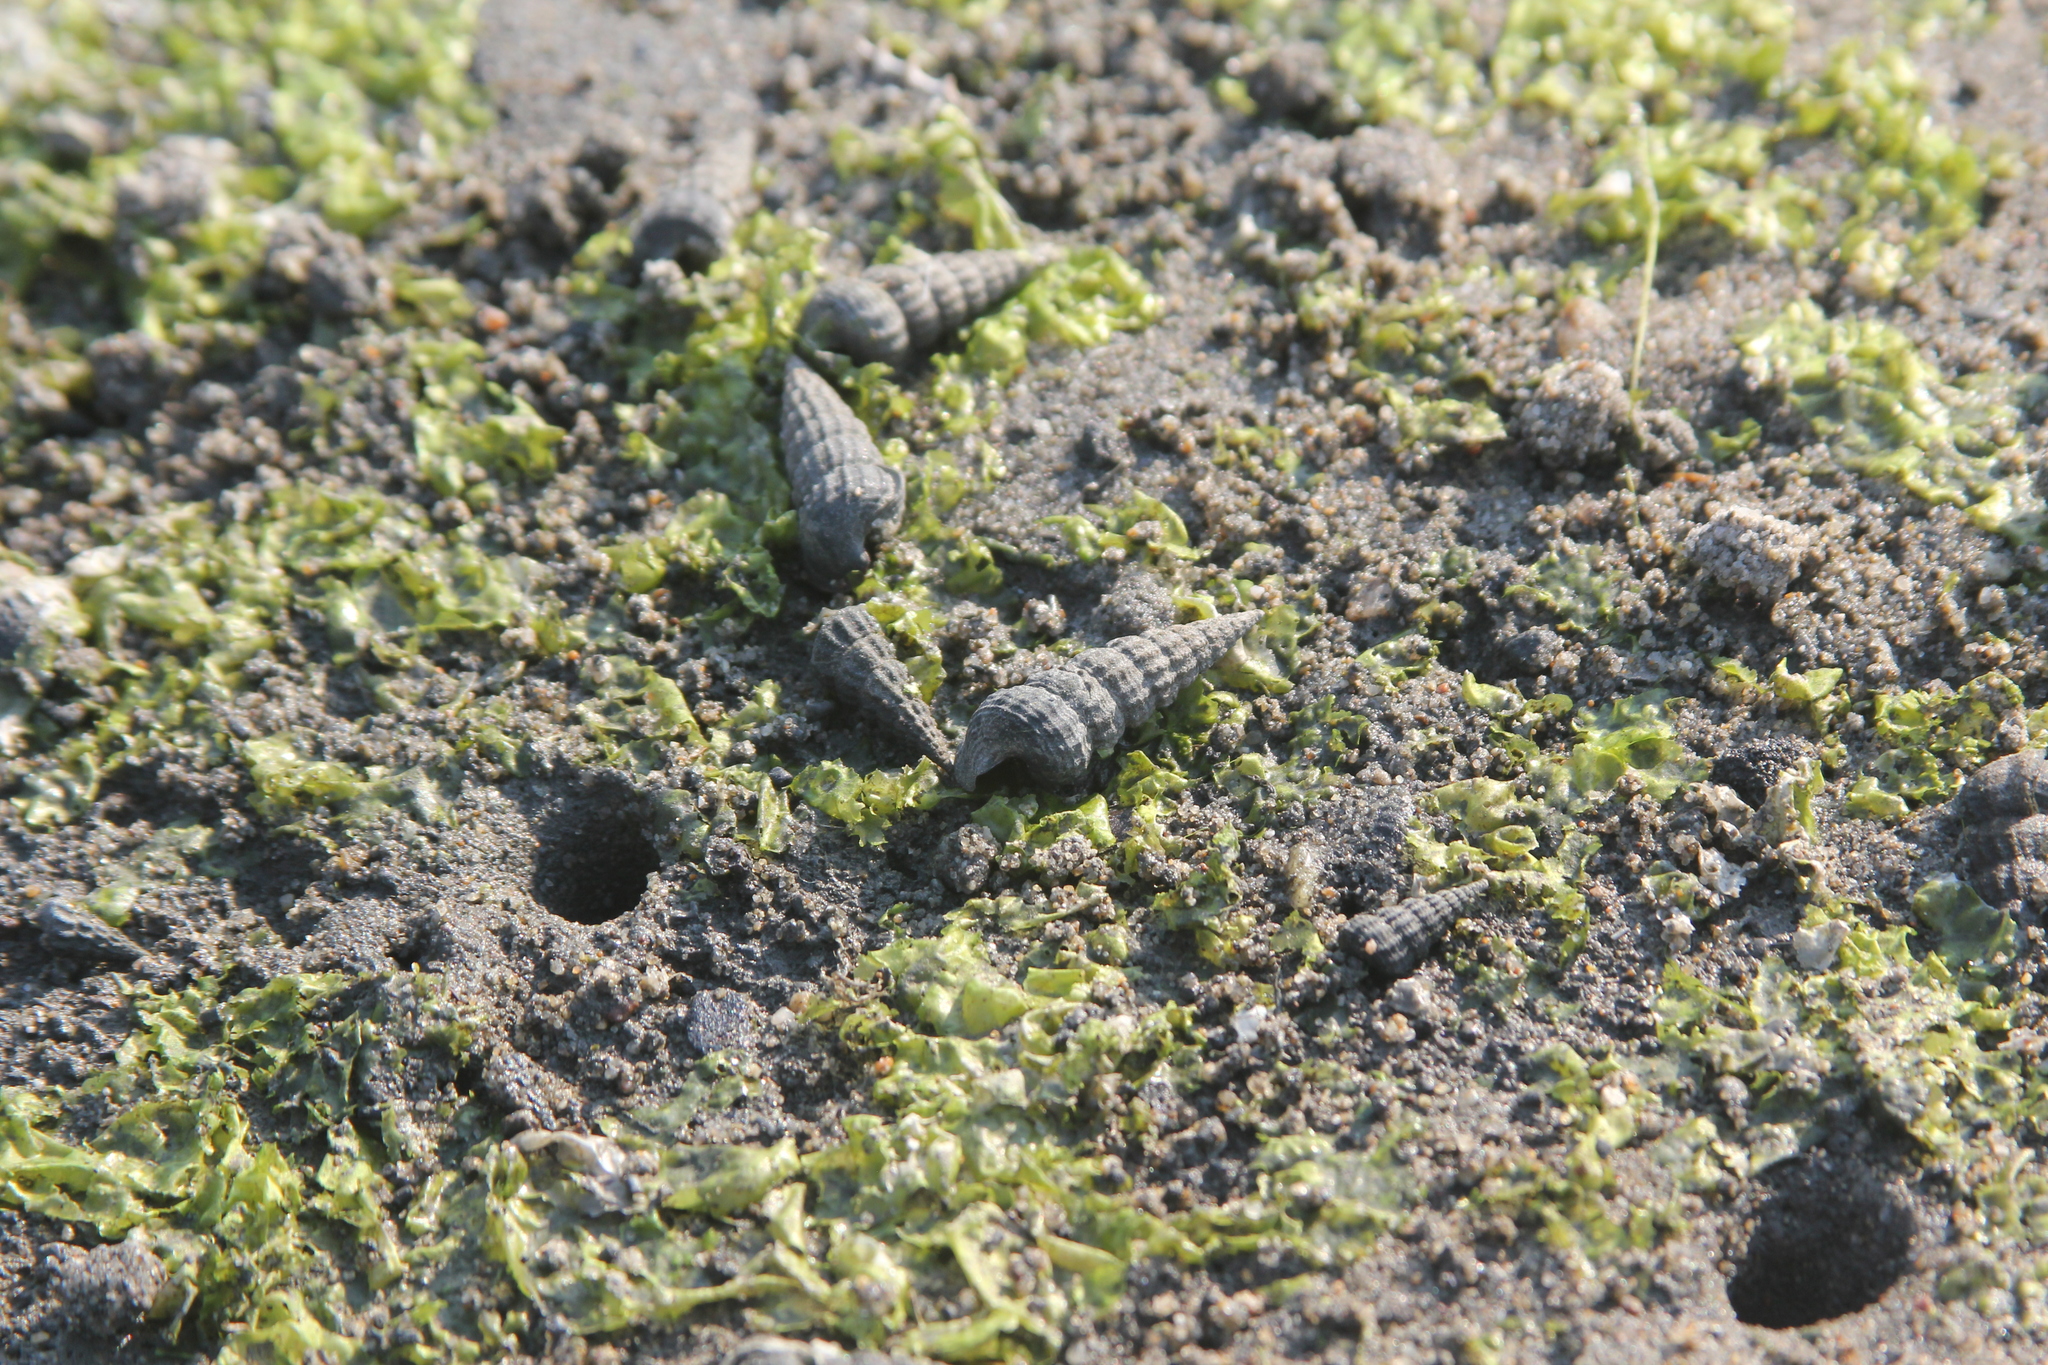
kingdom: Animalia
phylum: Mollusca
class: Gastropoda
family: Potamididae
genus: Cerithideopsis
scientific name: Cerithideopsis californica
